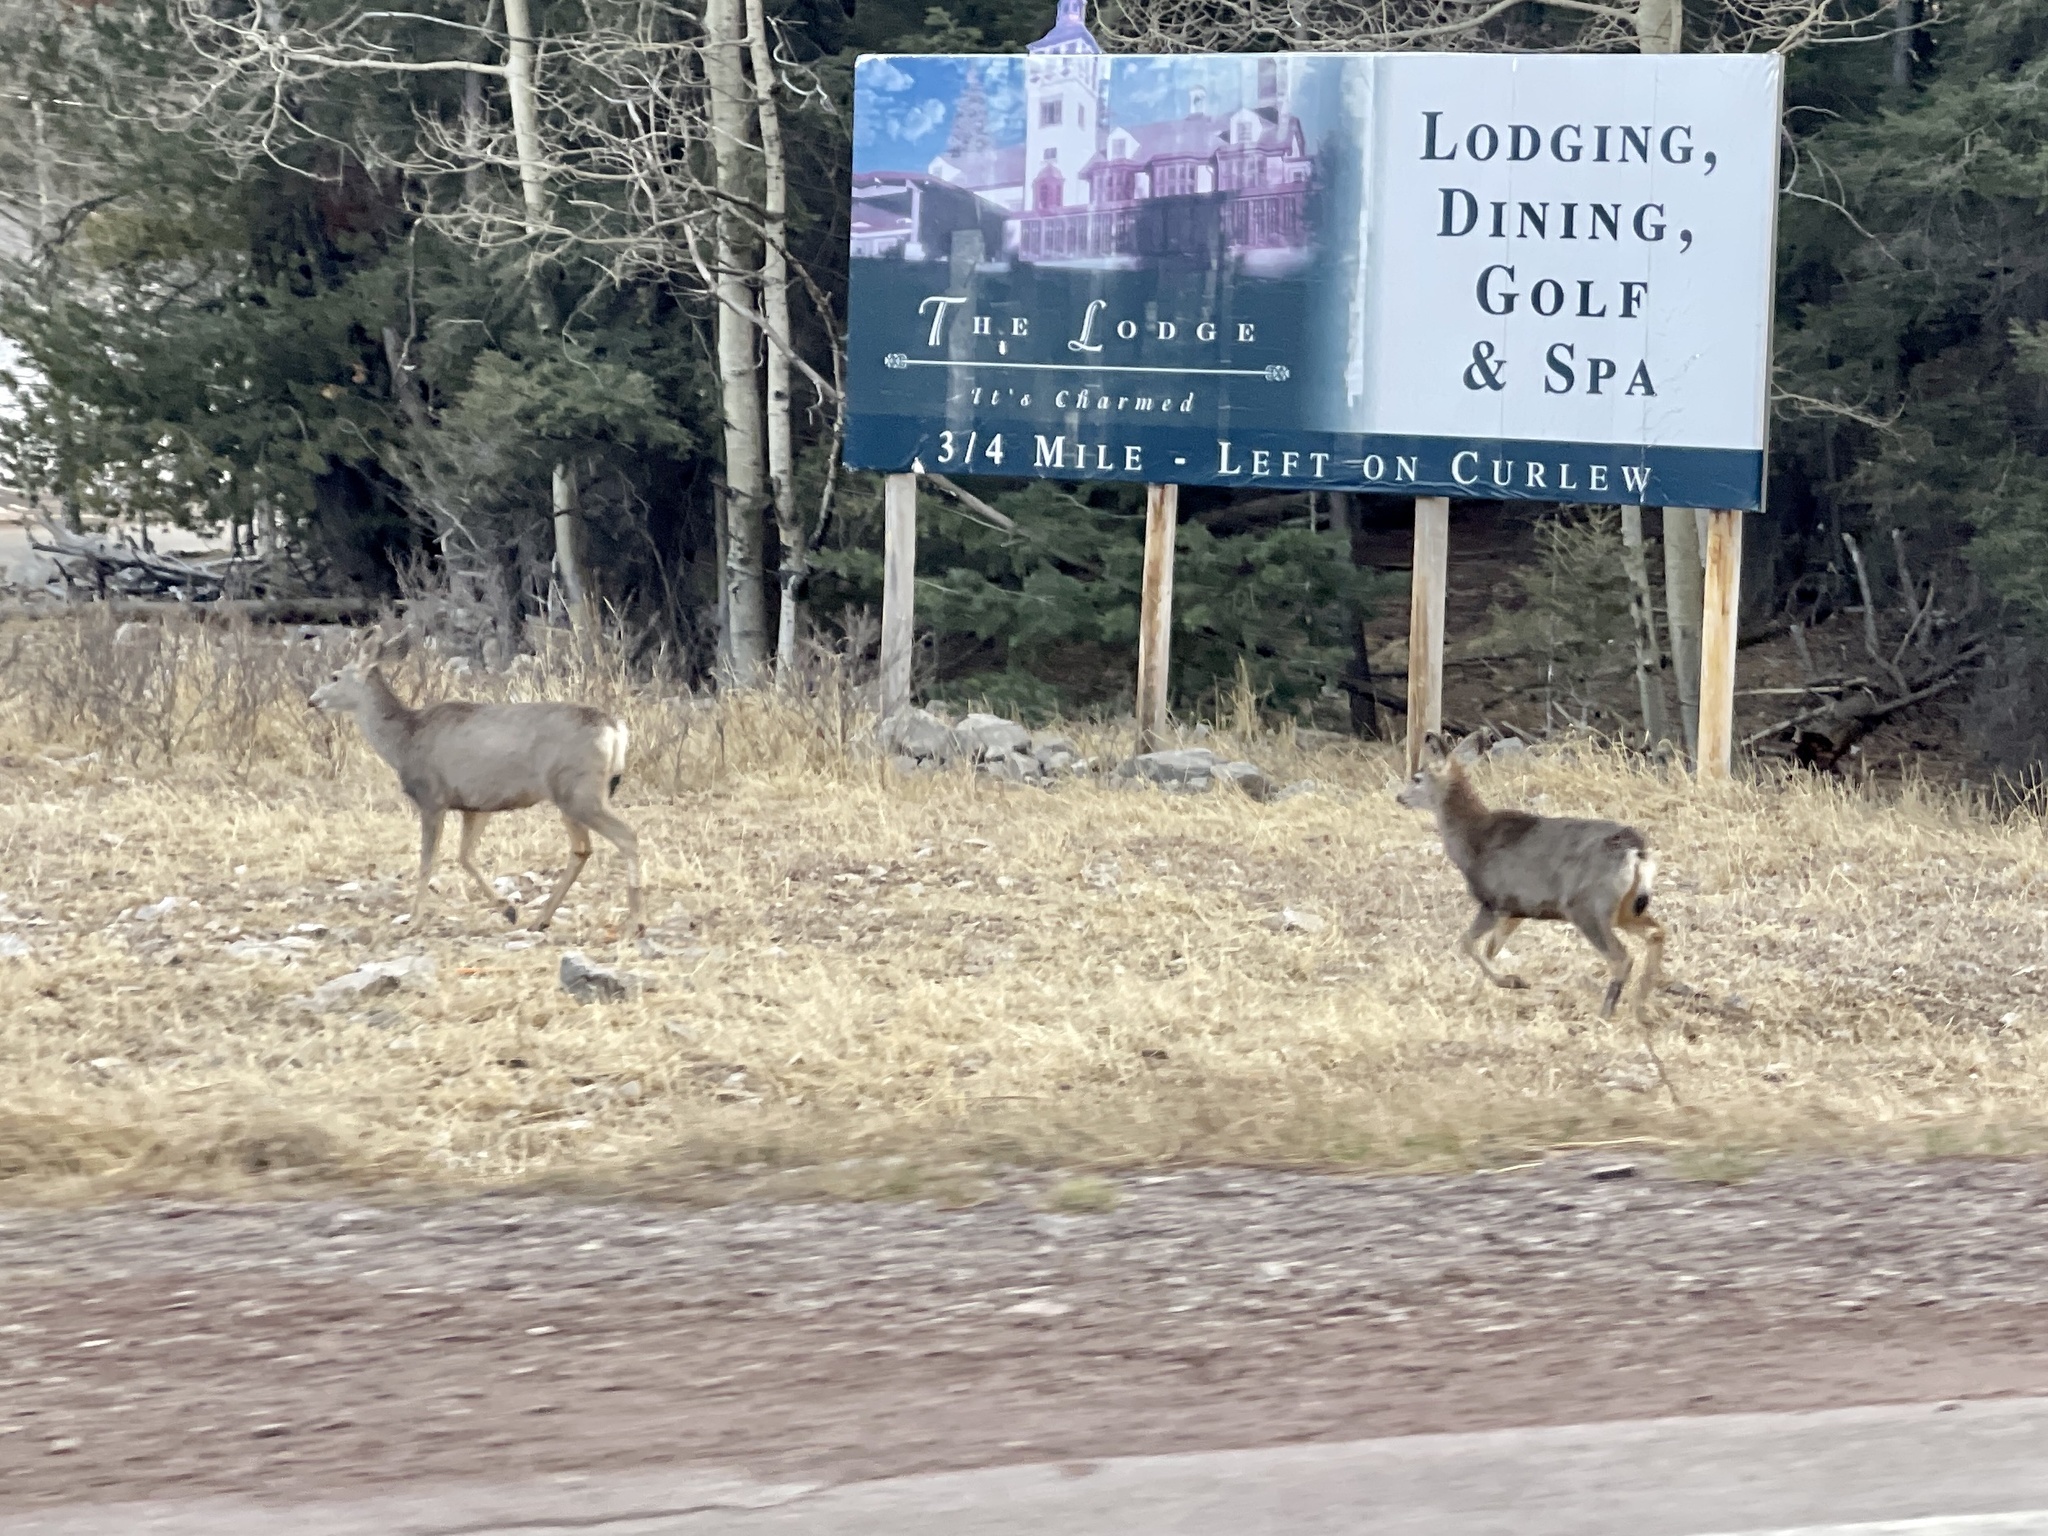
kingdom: Animalia
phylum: Chordata
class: Mammalia
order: Artiodactyla
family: Cervidae
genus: Odocoileus
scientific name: Odocoileus hemionus
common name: Mule deer
